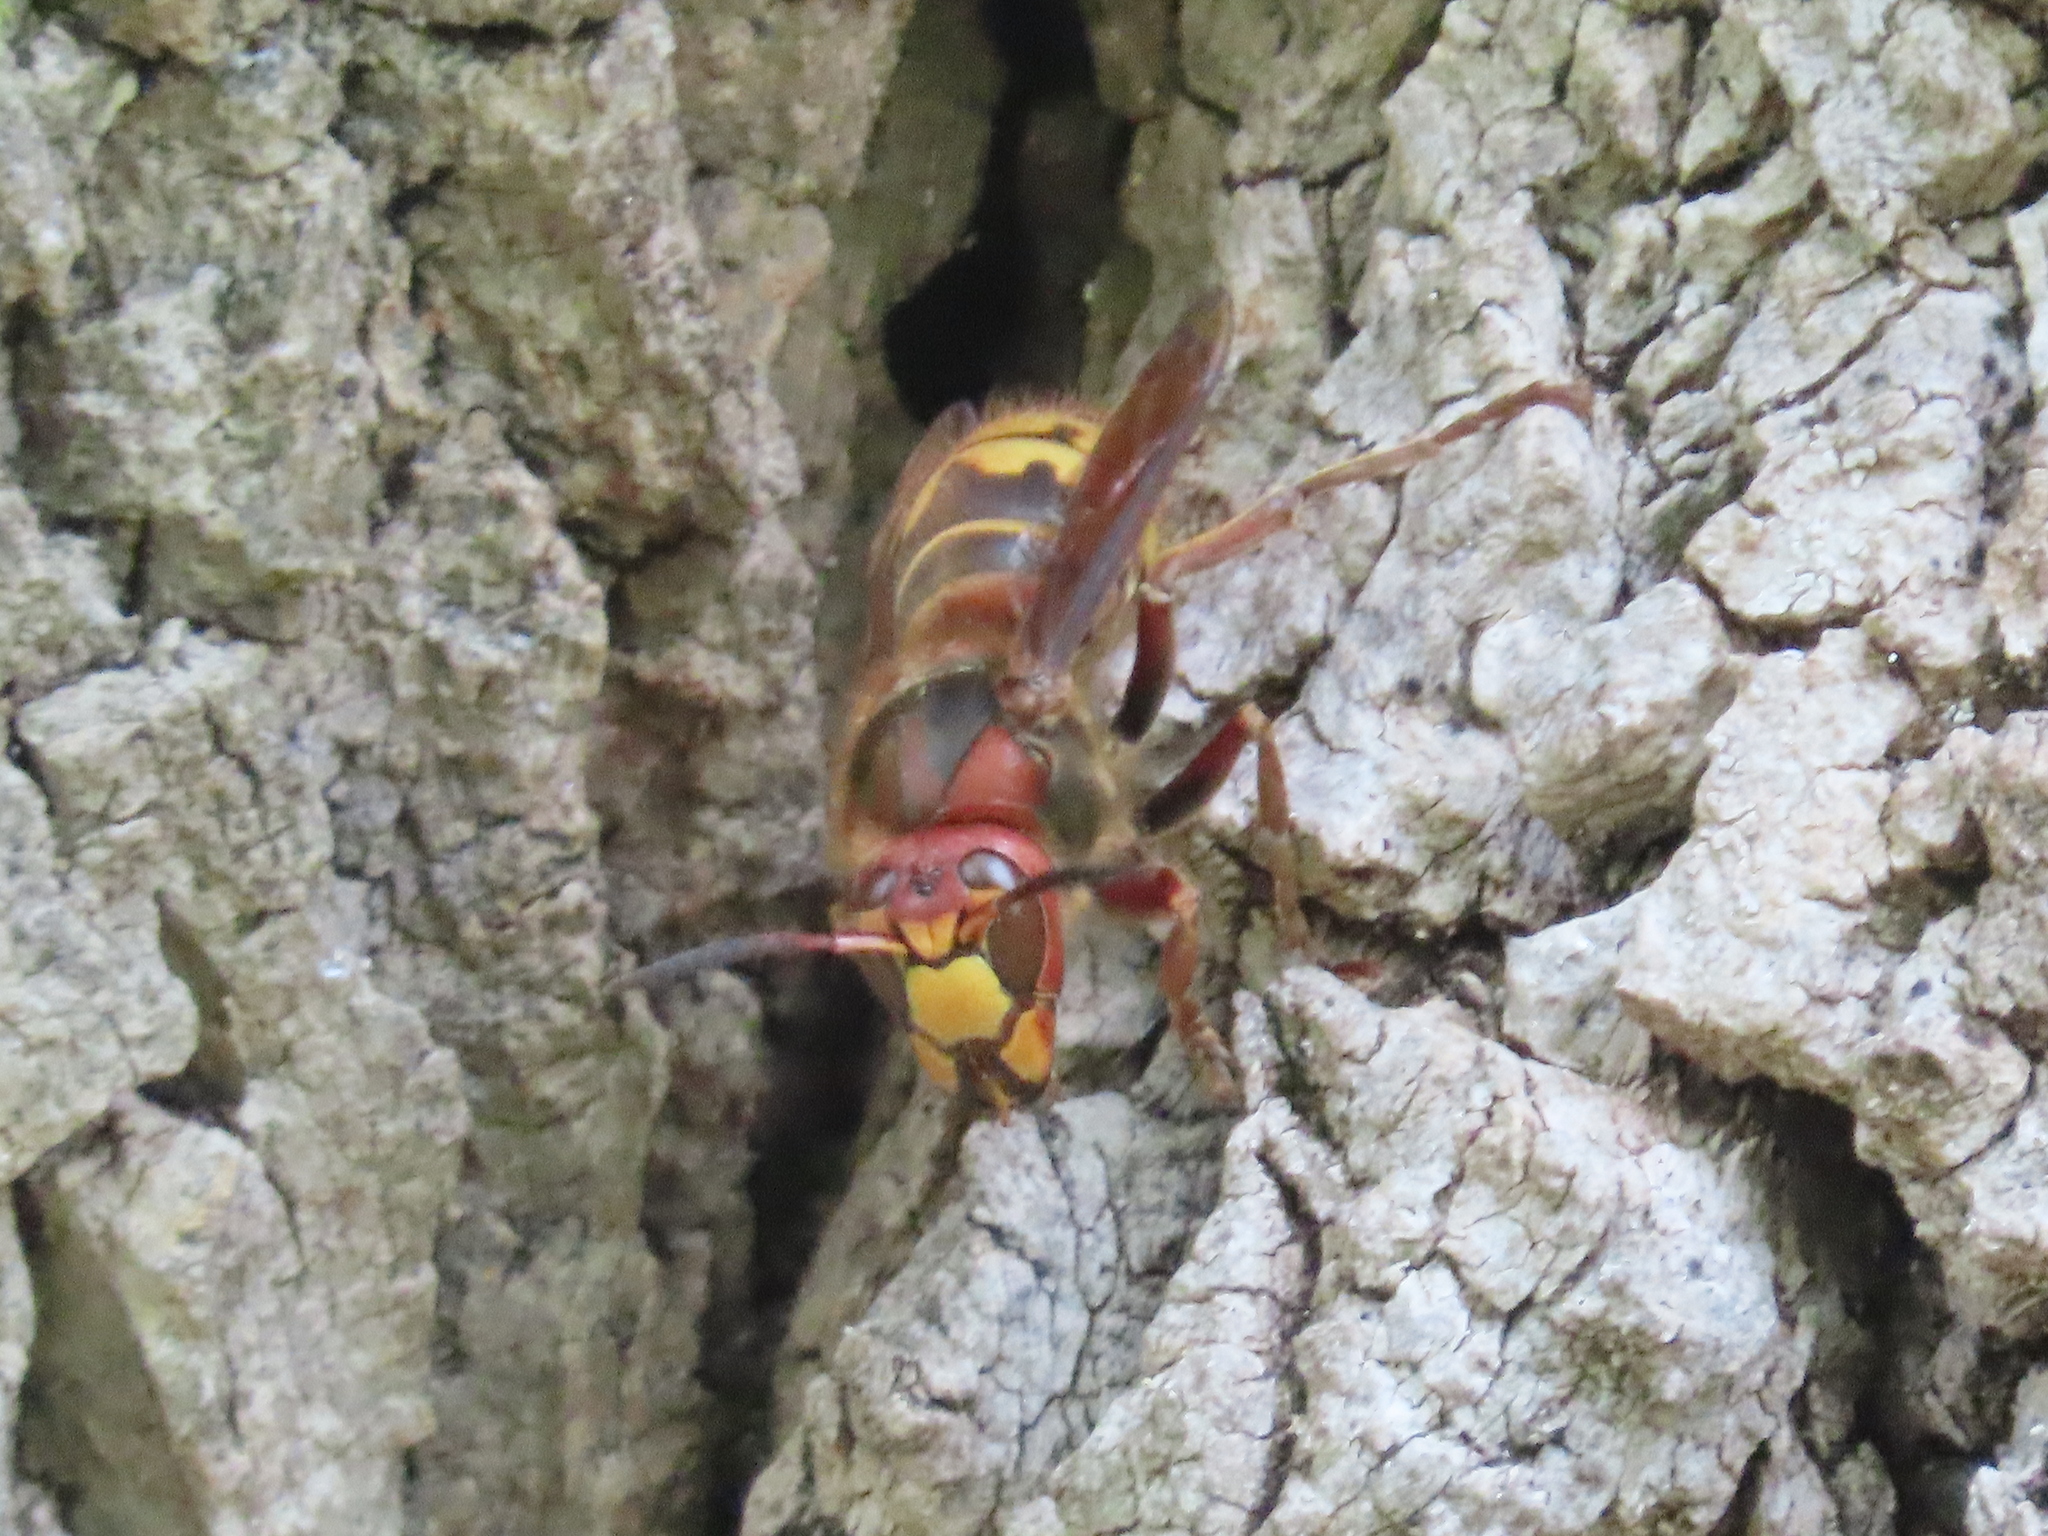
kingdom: Animalia
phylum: Arthropoda
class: Insecta
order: Hymenoptera
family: Vespidae
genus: Vespa
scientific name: Vespa crabro
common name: Hornet
